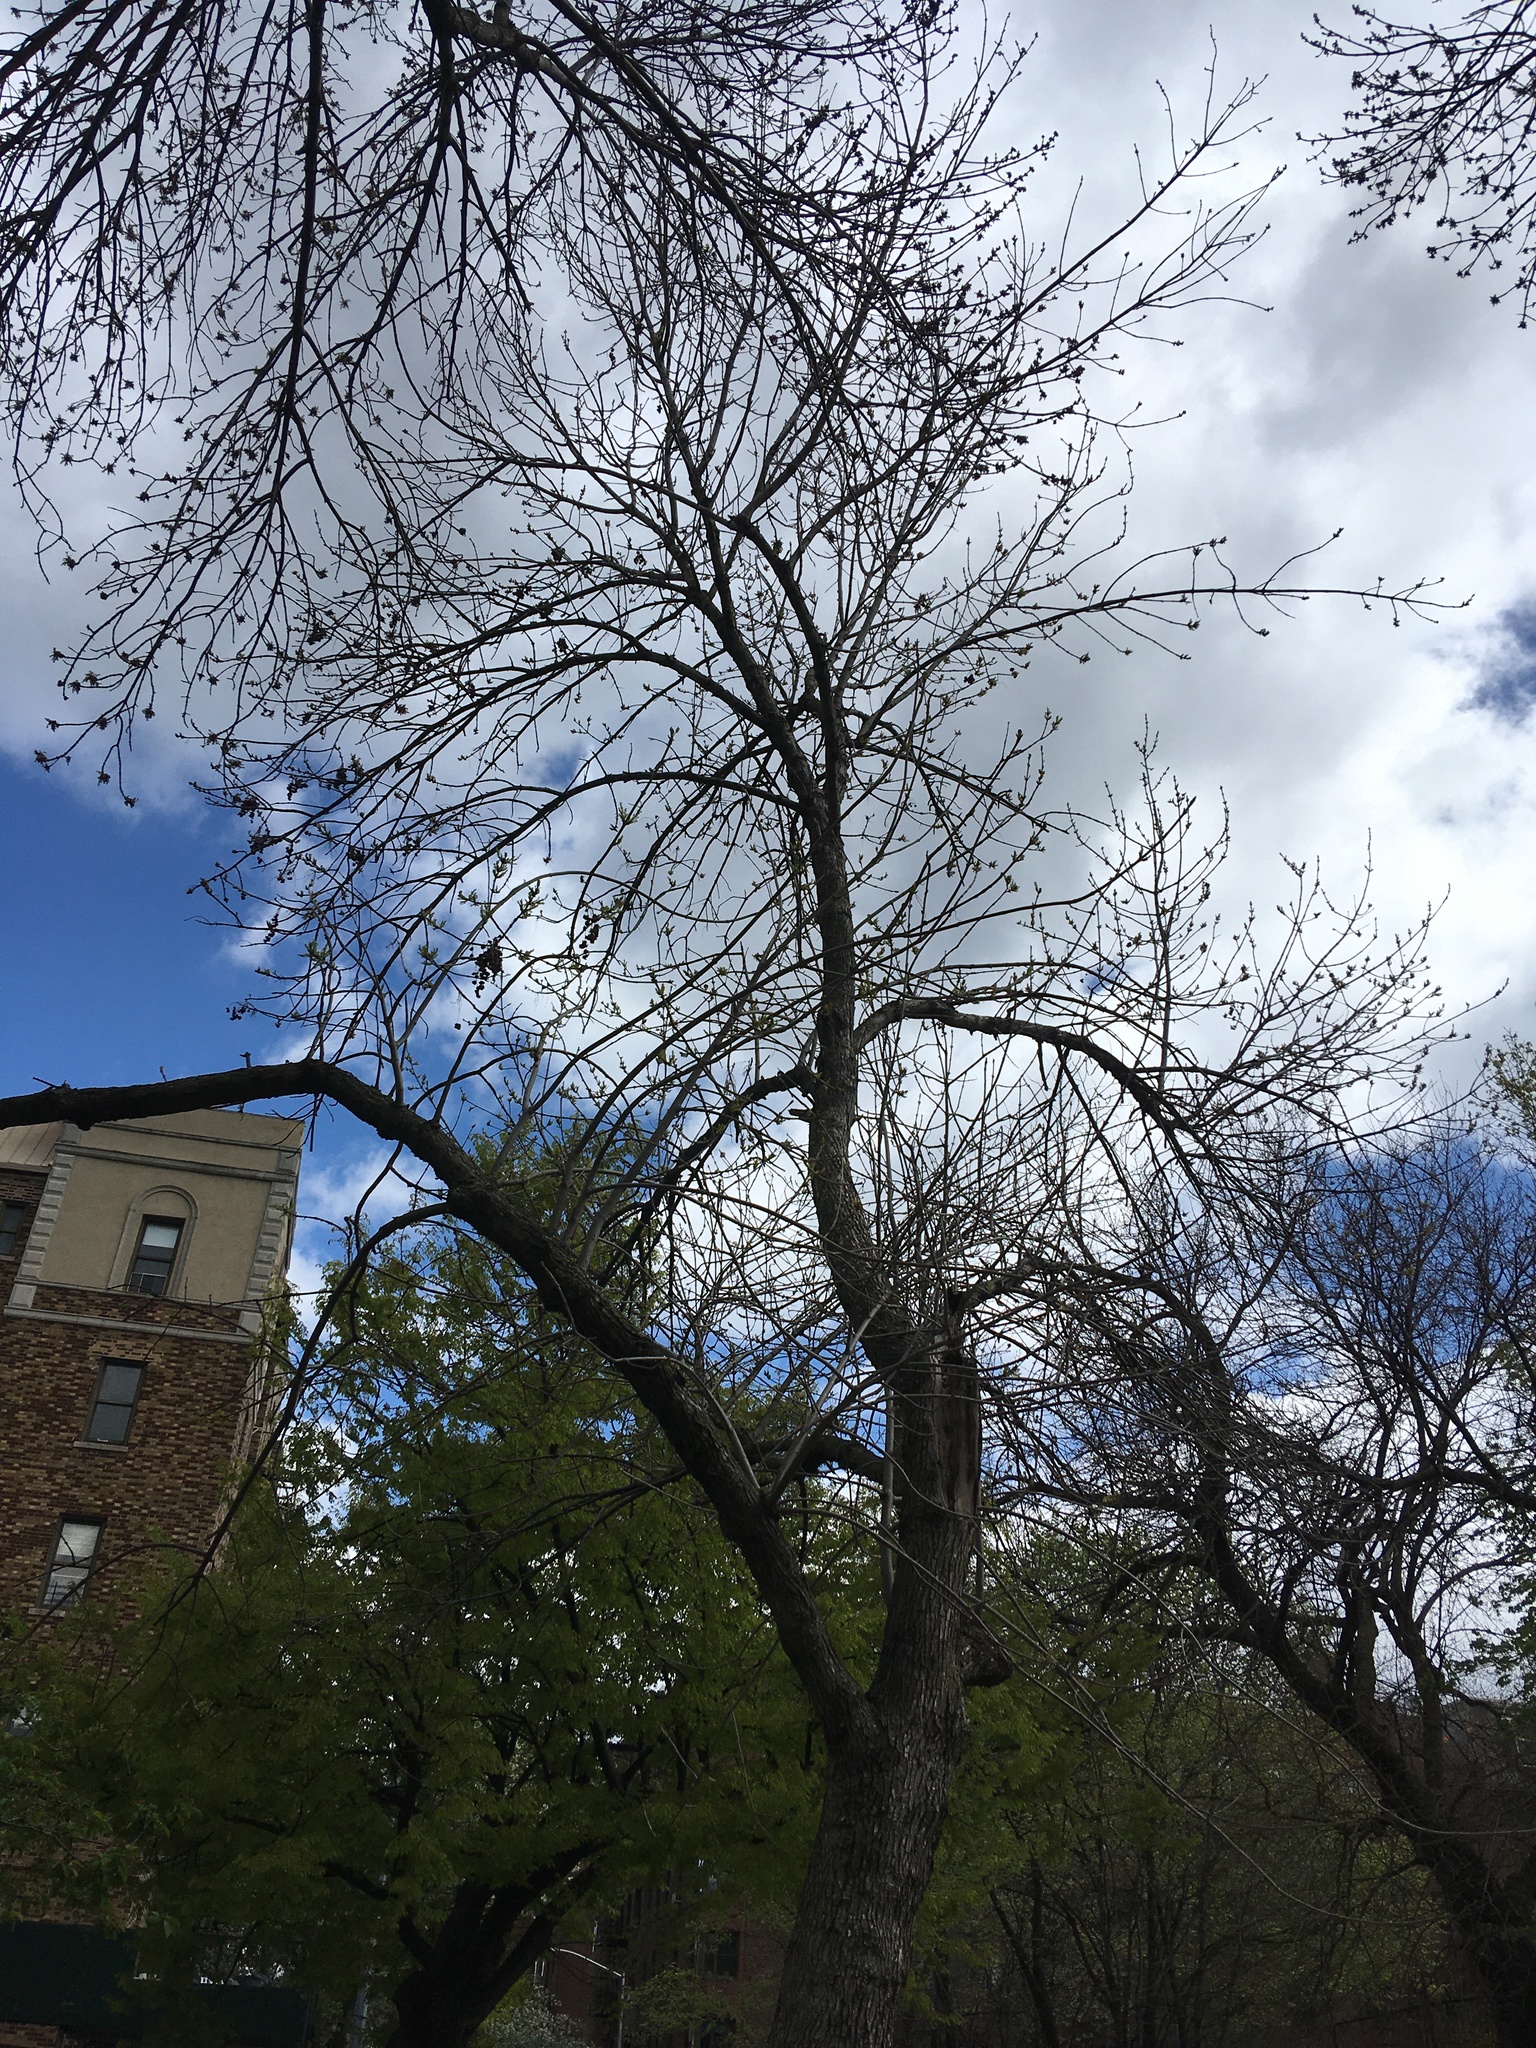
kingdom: Plantae
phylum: Tracheophyta
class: Magnoliopsida
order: Lamiales
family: Oleaceae
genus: Fraxinus
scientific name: Fraxinus pennsylvanica
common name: Green ash
